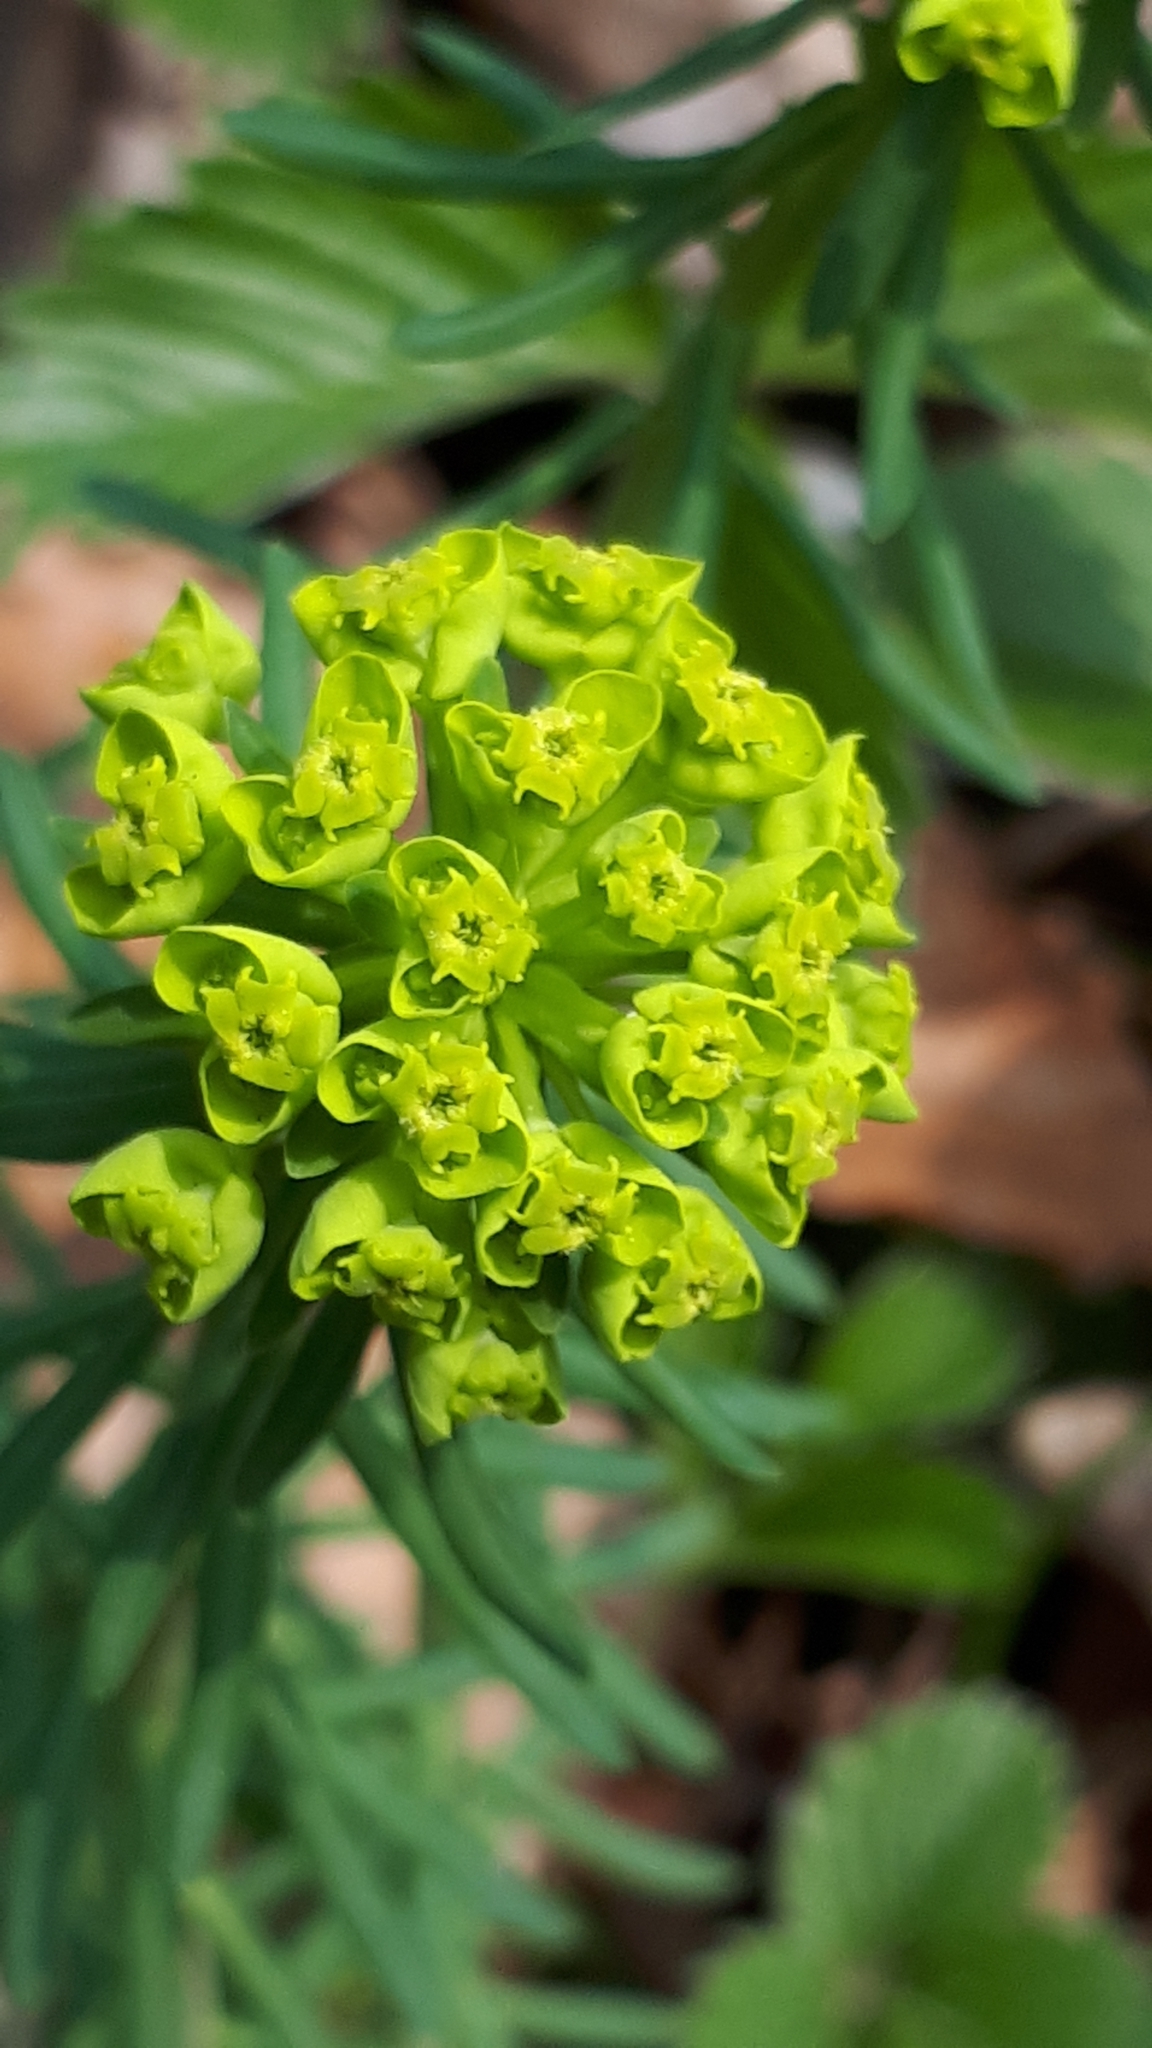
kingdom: Plantae
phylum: Tracheophyta
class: Magnoliopsida
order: Malpighiales
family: Euphorbiaceae
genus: Euphorbia
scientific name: Euphorbia cyparissias
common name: Cypress spurge
